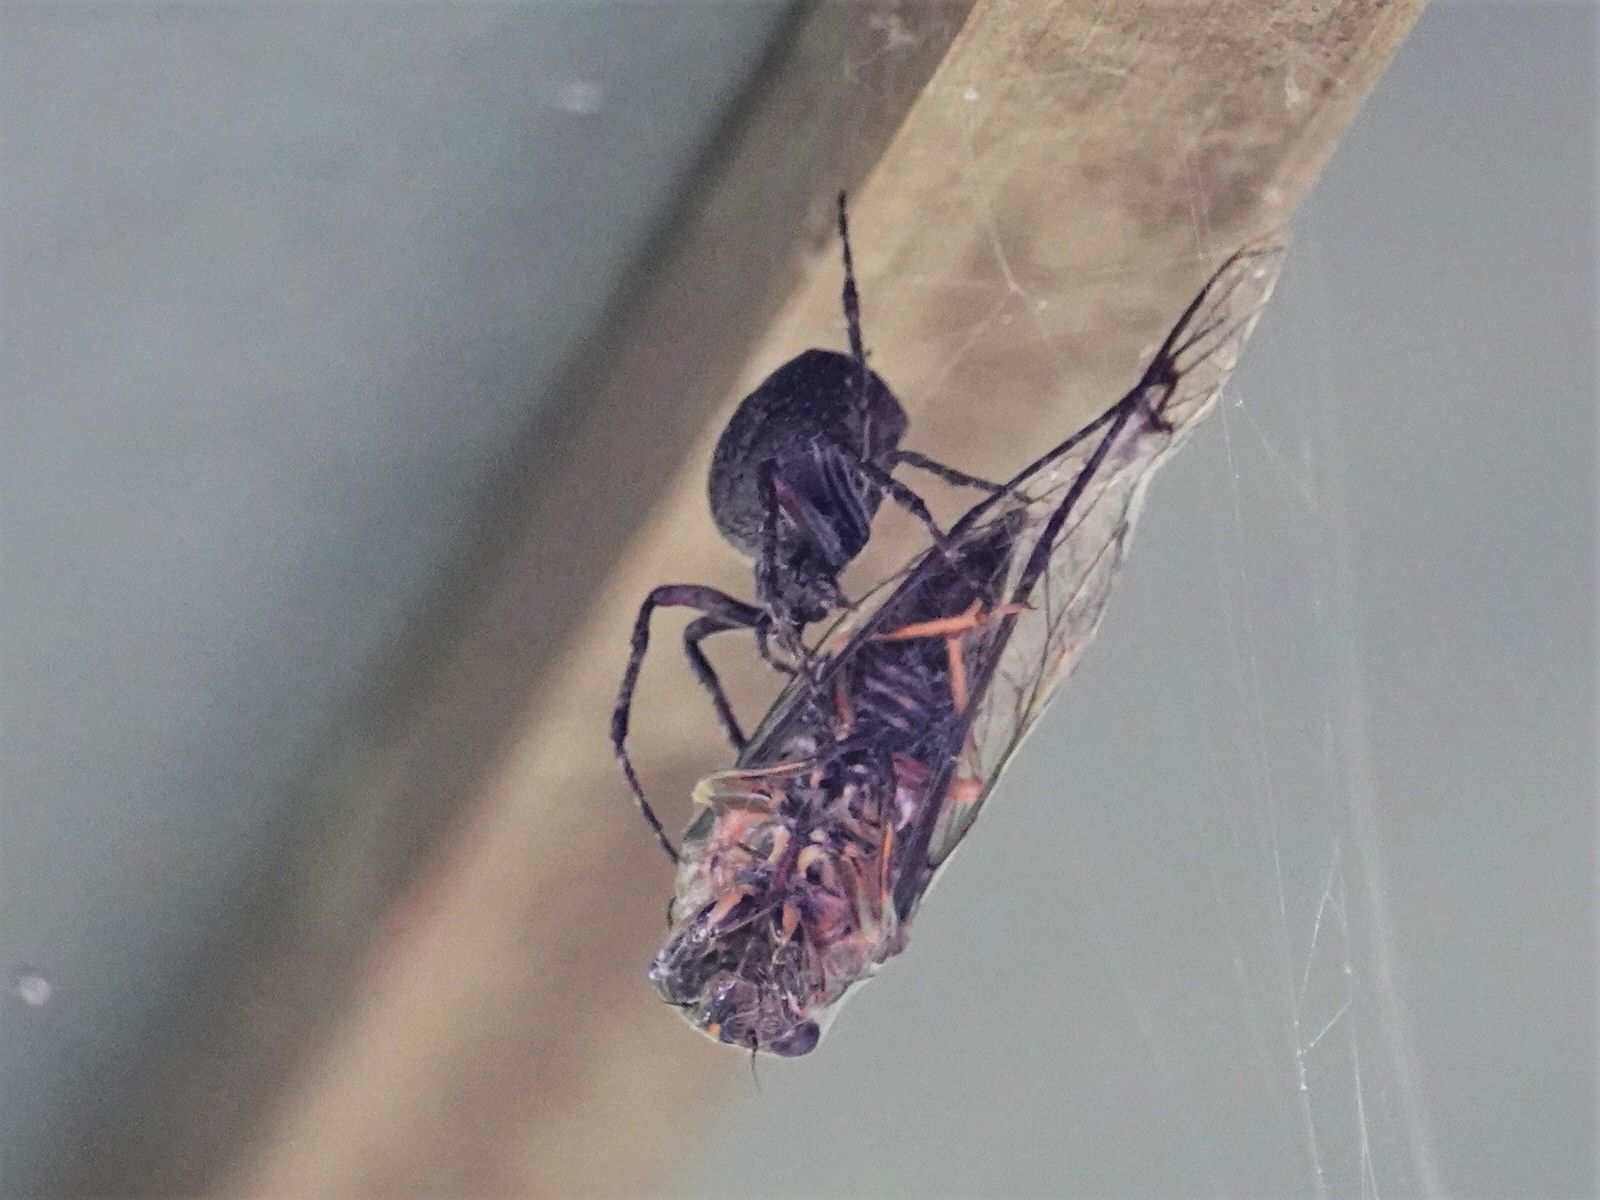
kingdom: Animalia
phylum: Arthropoda
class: Arachnida
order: Araneae
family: Araneidae
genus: Eriophora
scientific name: Eriophora pustulosa
